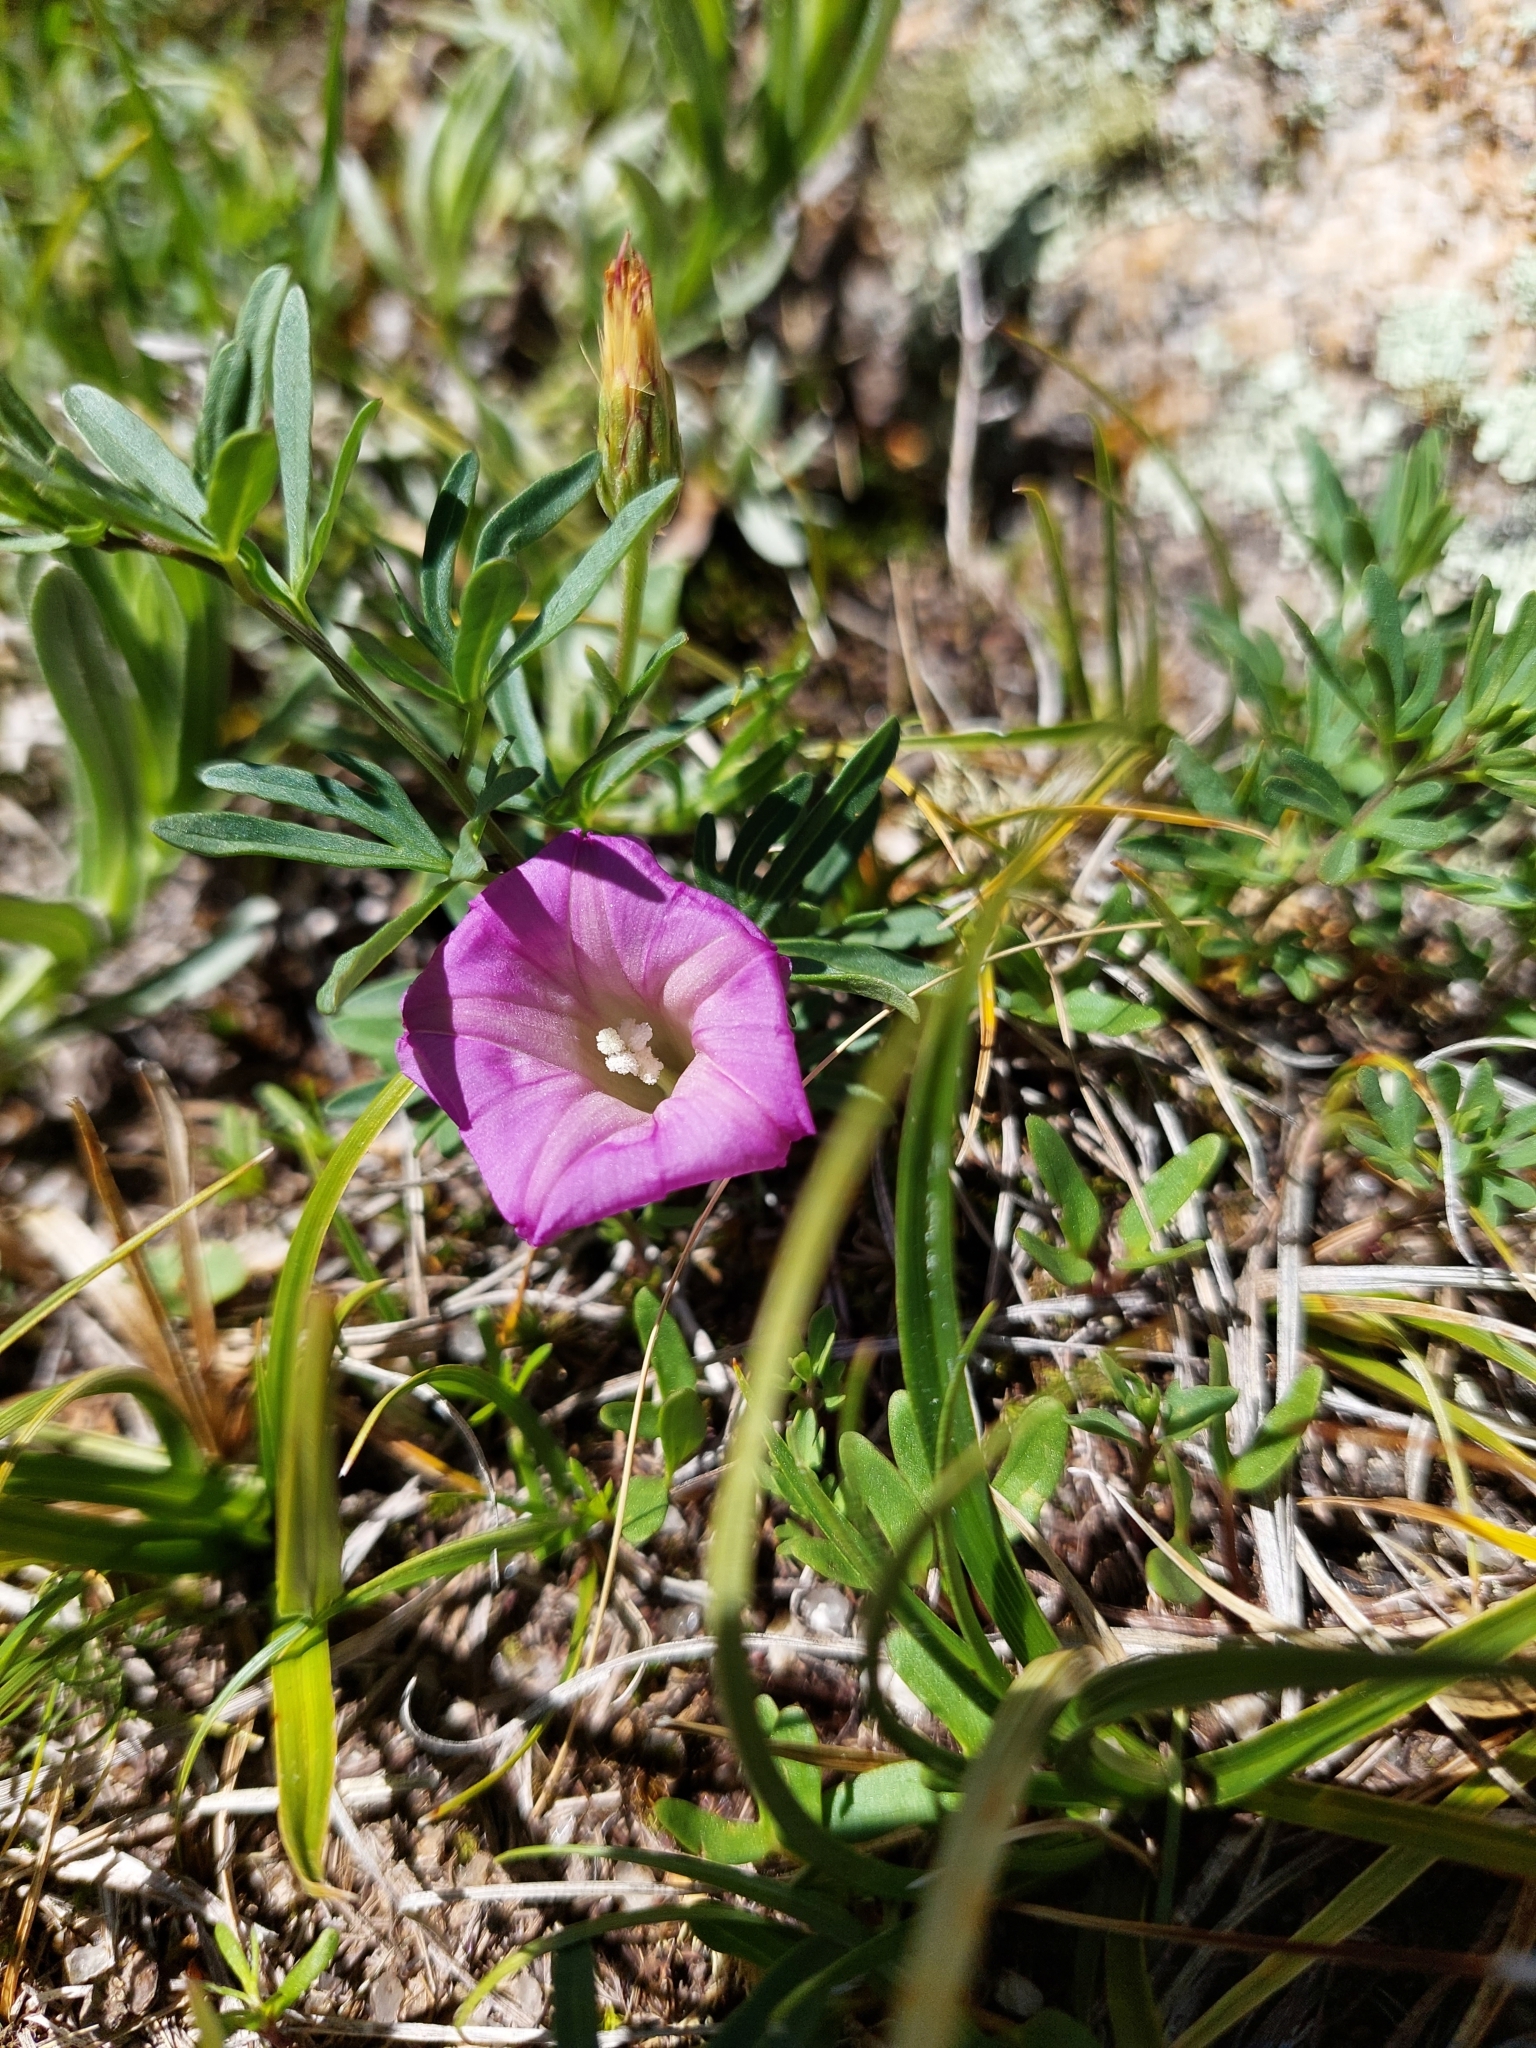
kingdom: Plantae
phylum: Tracheophyta
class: Magnoliopsida
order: Solanales
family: Convolvulaceae
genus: Ipomoea
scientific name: Ipomoea plummerae
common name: Plummer's morning-glory
